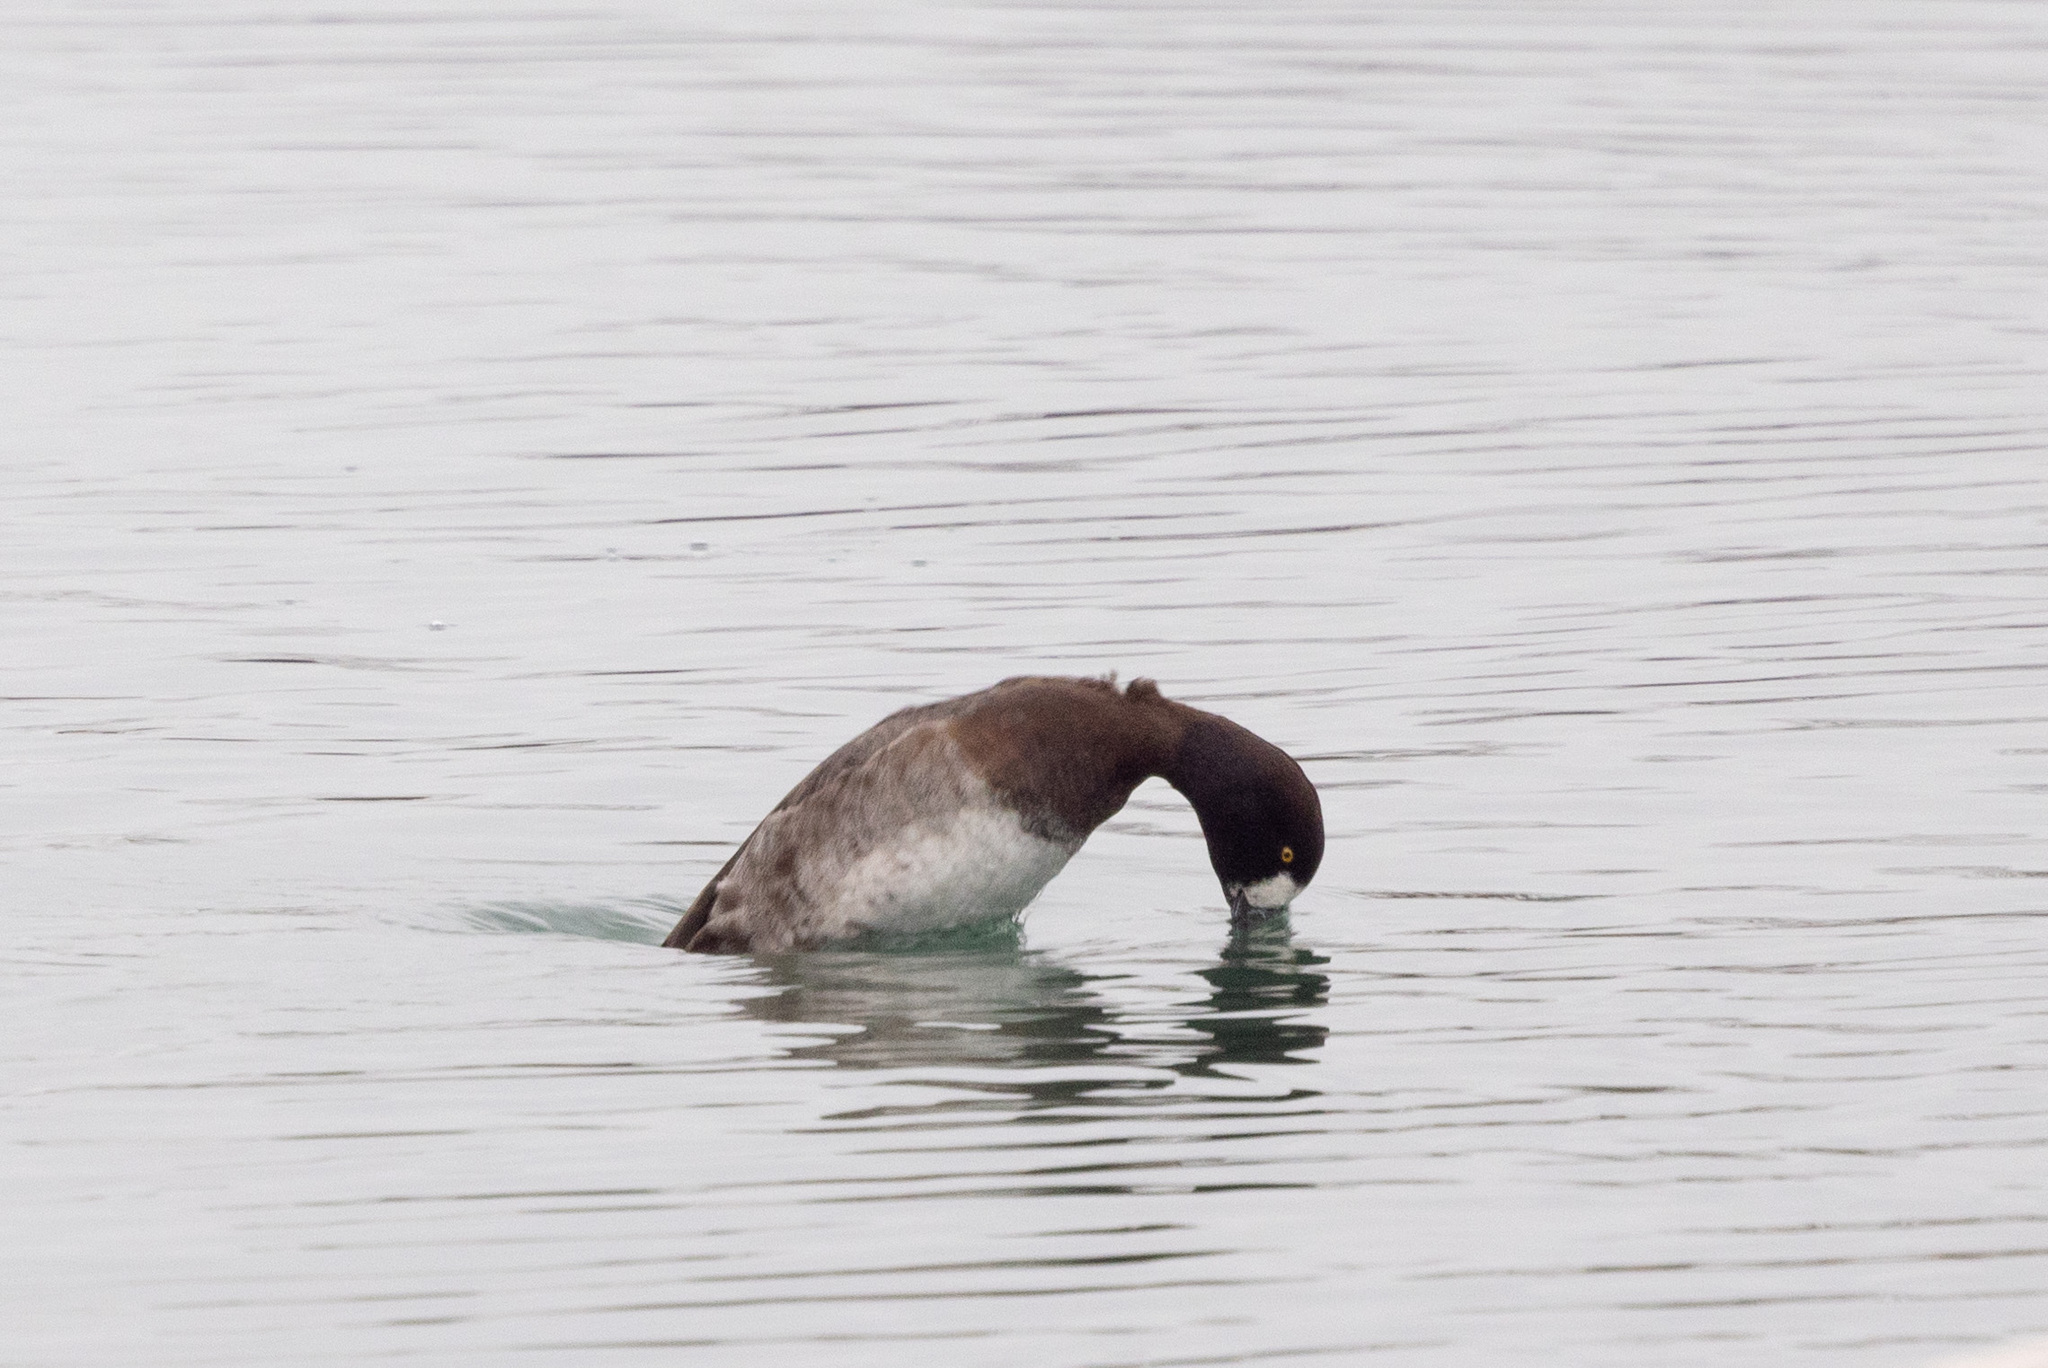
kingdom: Animalia
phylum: Chordata
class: Aves
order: Anseriformes
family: Anatidae
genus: Aythya
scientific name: Aythya marila
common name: Greater scaup
